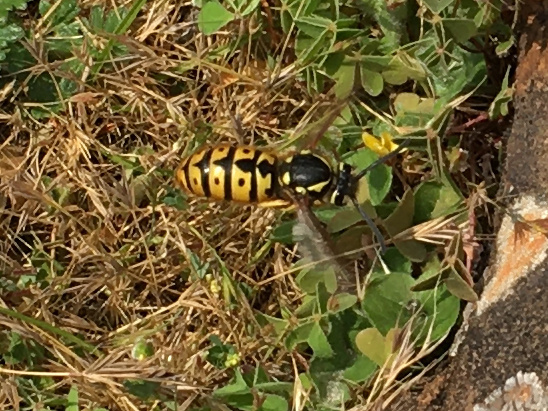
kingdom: Animalia
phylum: Arthropoda
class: Insecta
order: Hymenoptera
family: Vespidae
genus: Vespula
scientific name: Vespula germanica
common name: German wasp
